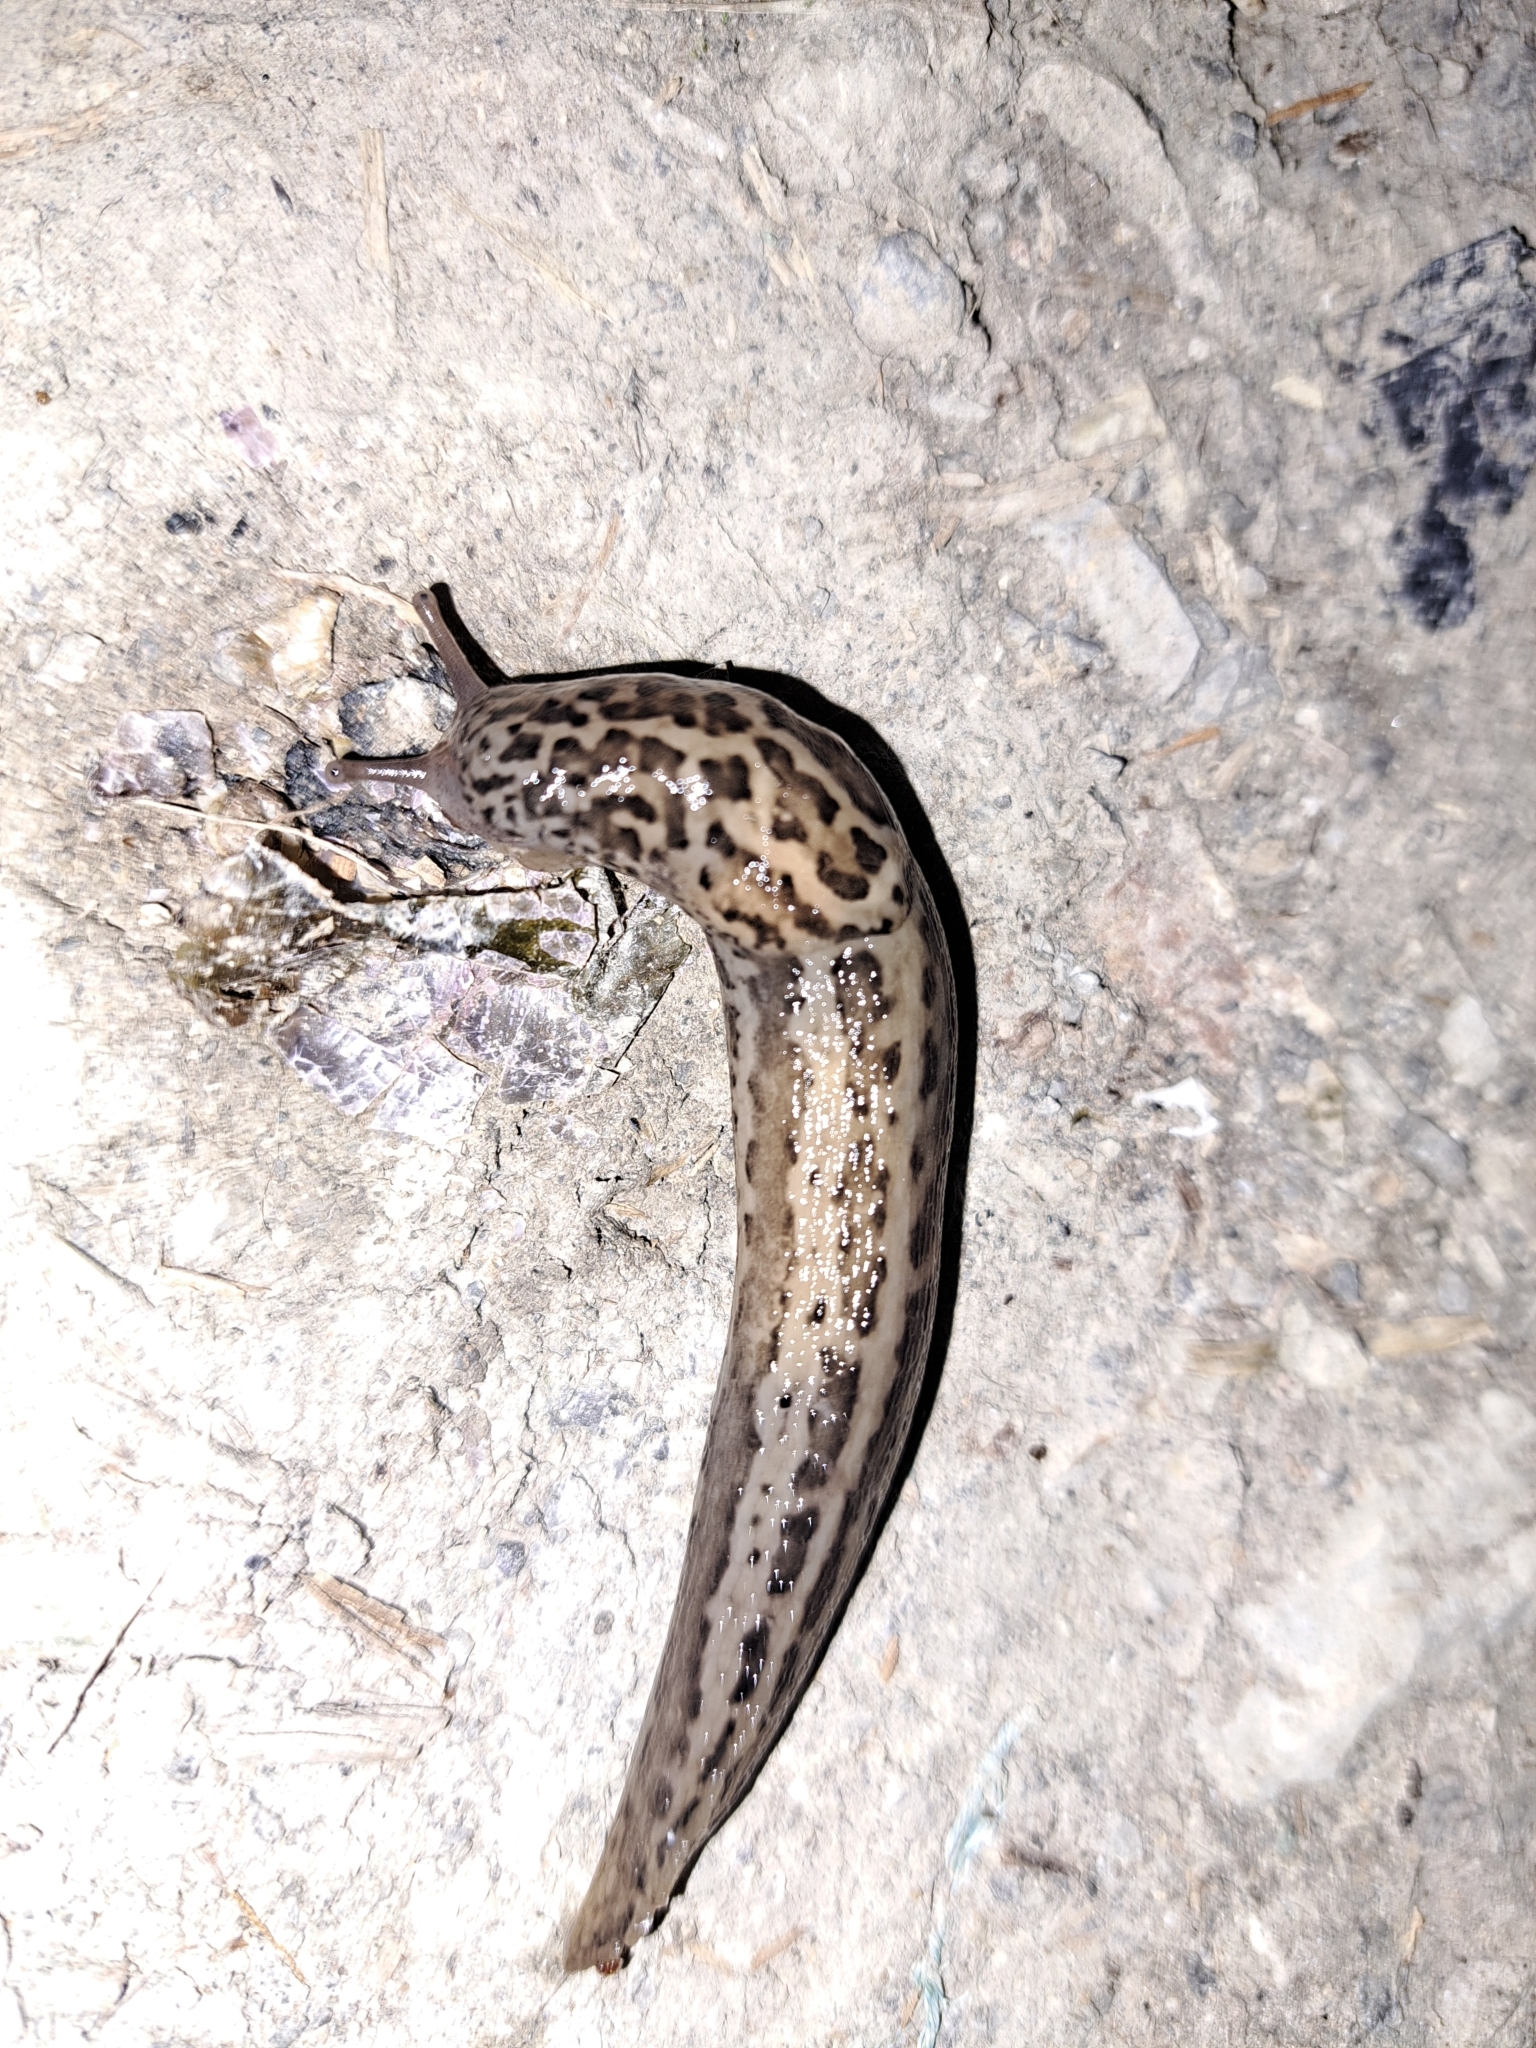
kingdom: Animalia
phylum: Mollusca
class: Gastropoda
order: Stylommatophora
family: Limacidae
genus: Limax
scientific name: Limax maximus
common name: Great grey slug
